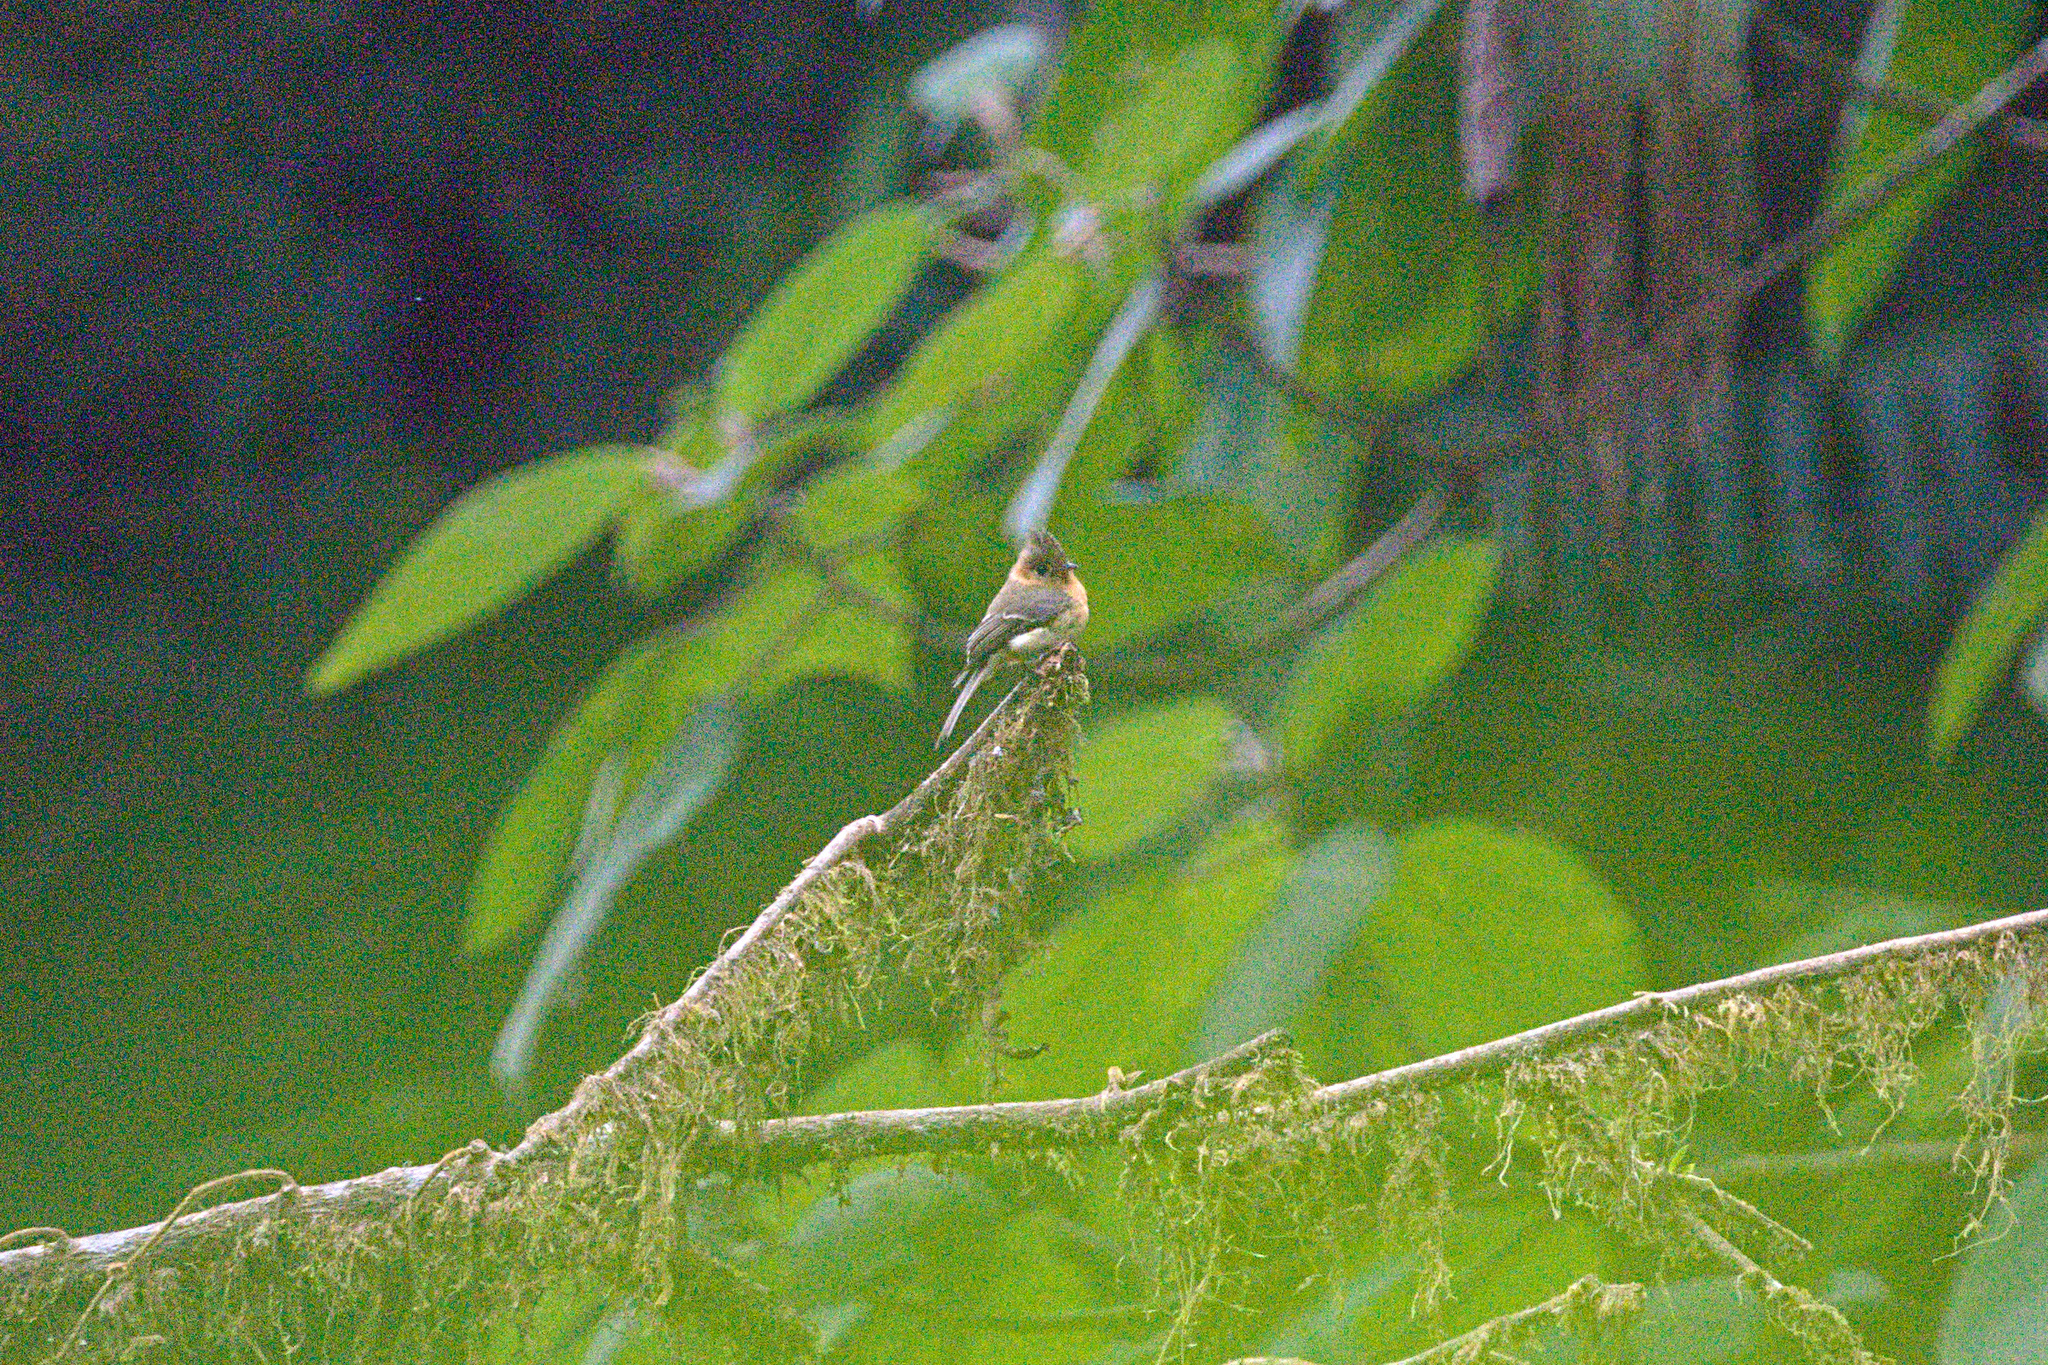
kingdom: Animalia
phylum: Chordata
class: Aves
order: Passeriformes
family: Tyrannidae
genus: Mitrephanes
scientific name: Mitrephanes phaeocercus
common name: Northern tufted flycatcher
